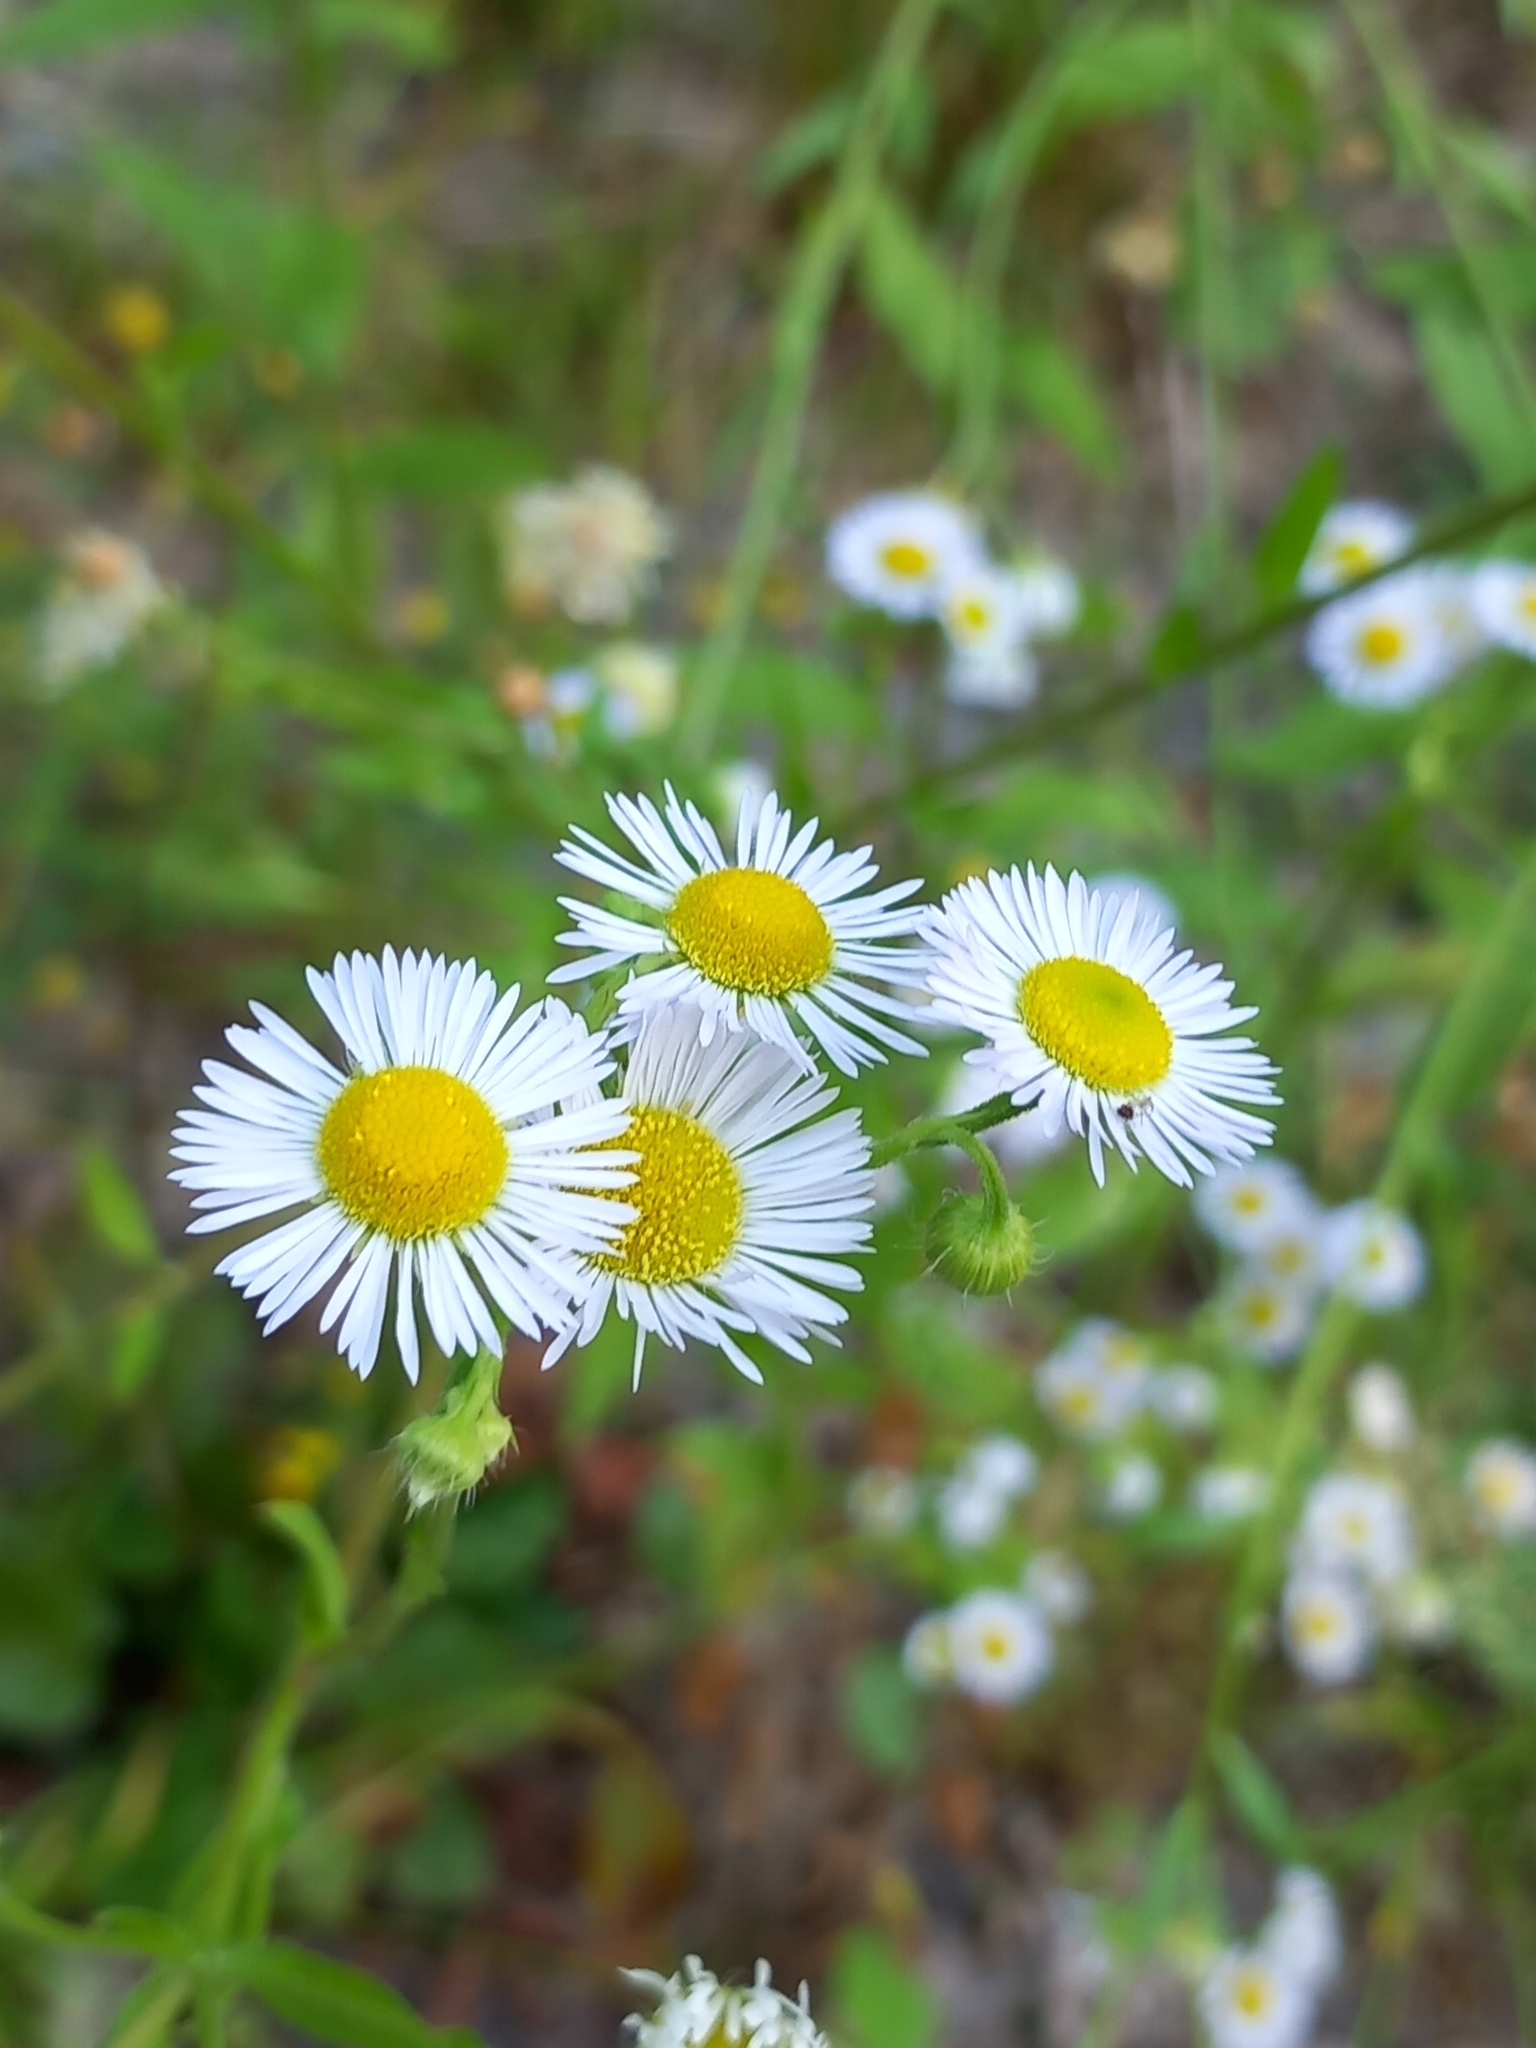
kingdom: Plantae
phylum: Tracheophyta
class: Magnoliopsida
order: Asterales
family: Asteraceae
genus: Erigeron
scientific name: Erigeron annuus
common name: Tall fleabane
